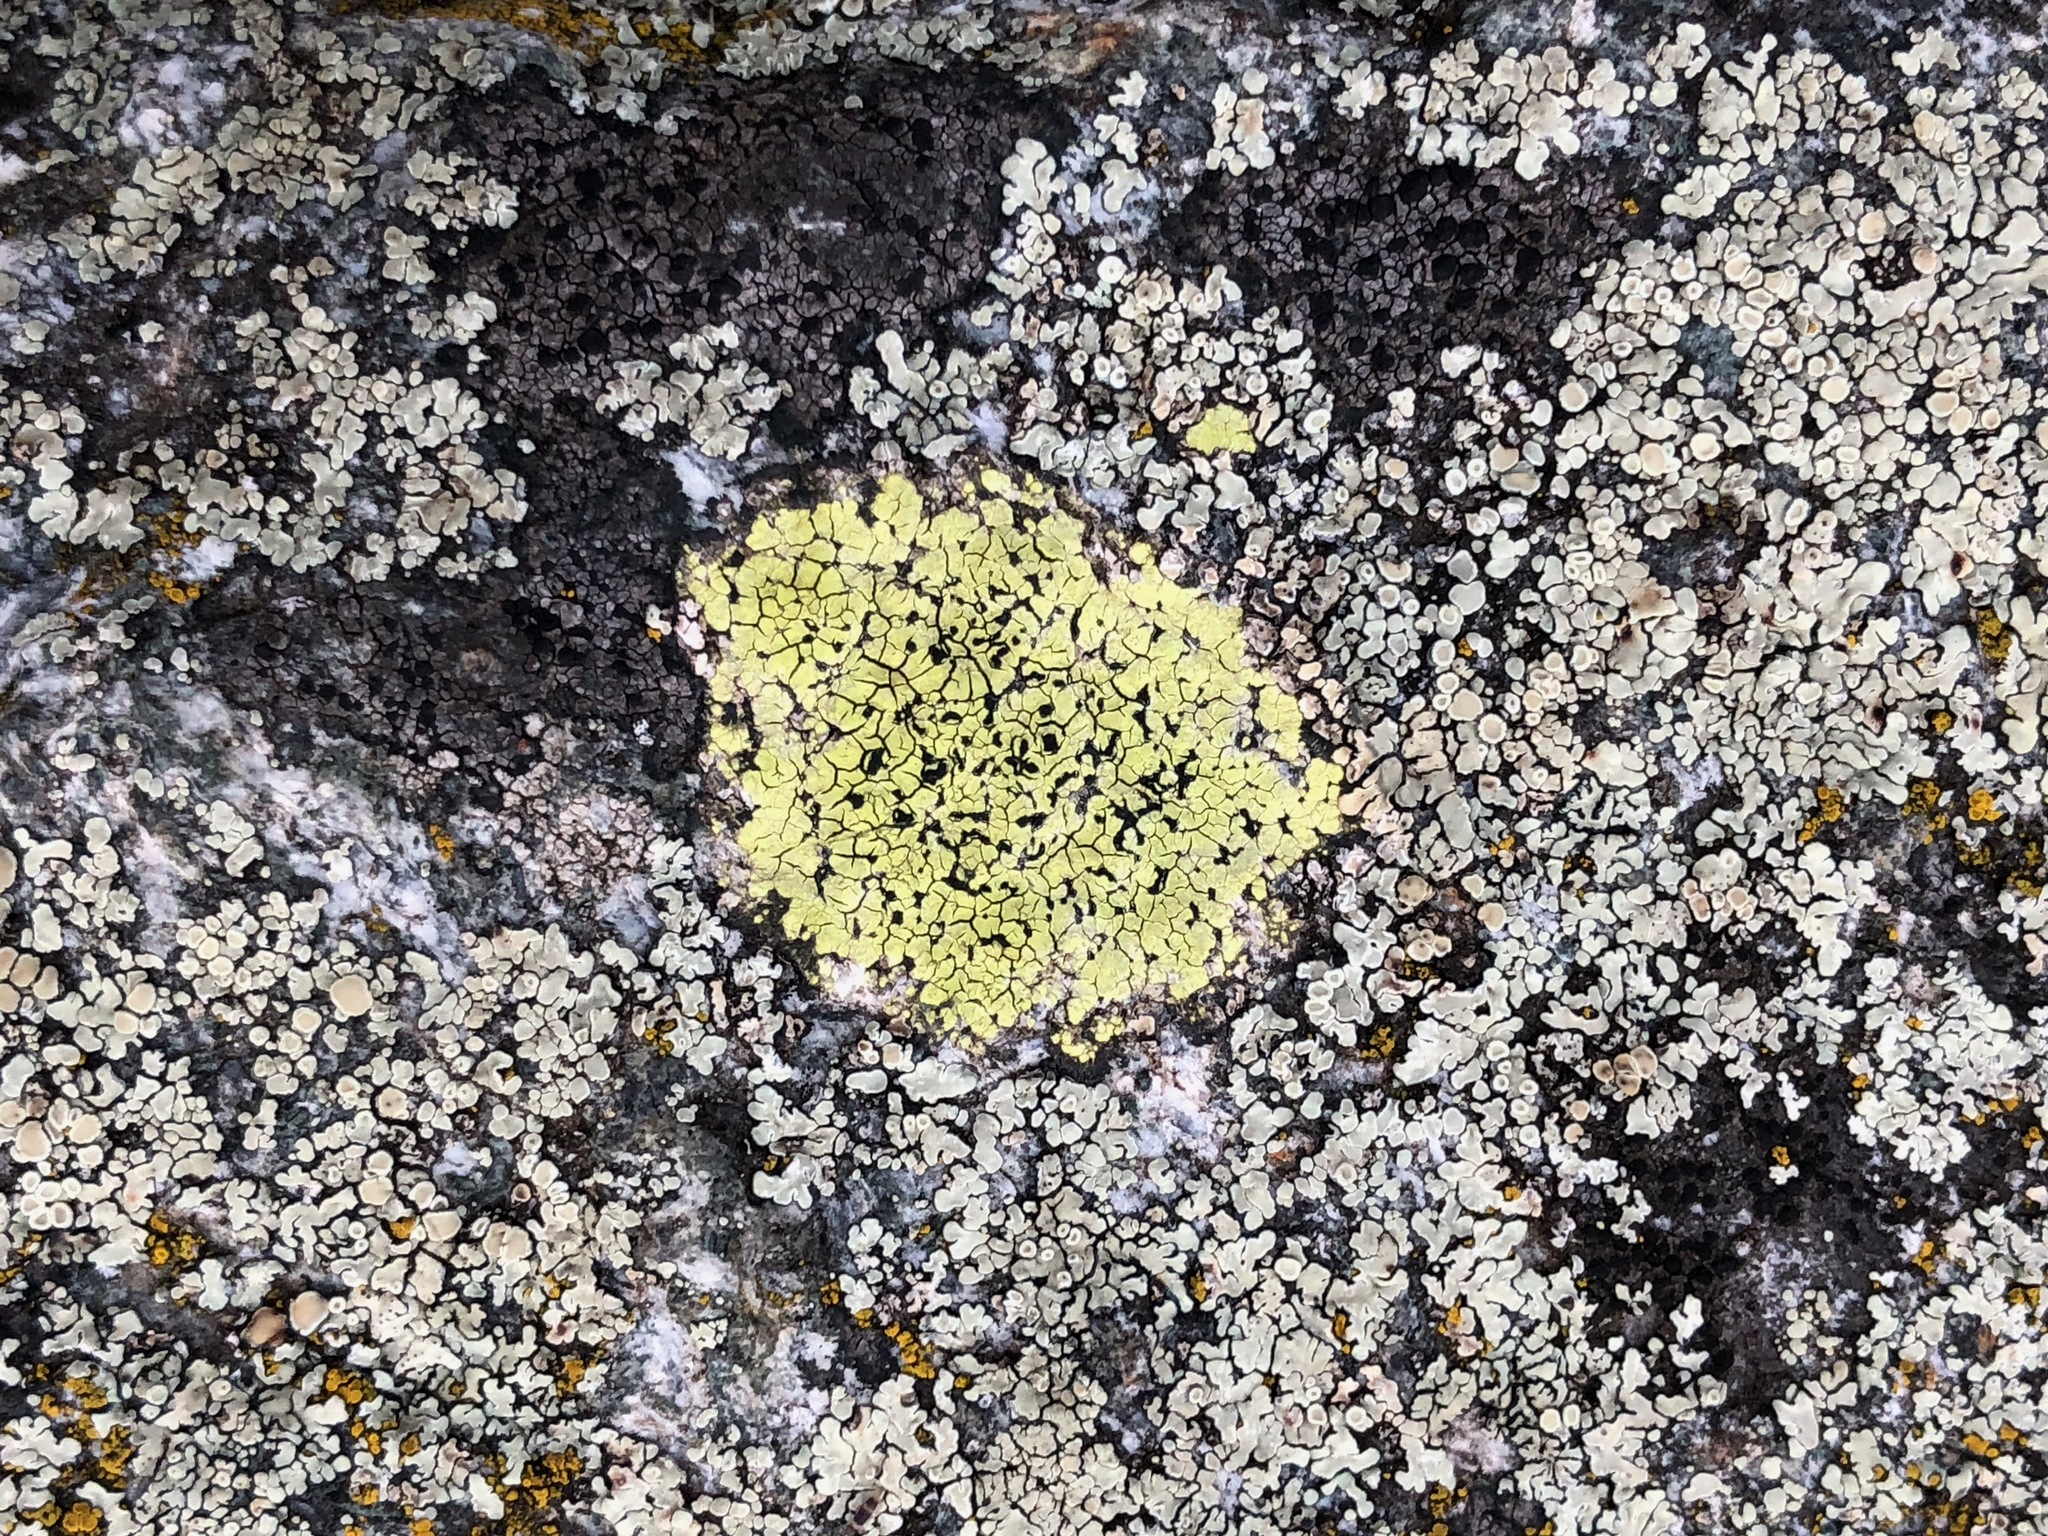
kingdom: Fungi
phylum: Ascomycota
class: Lecanoromycetes
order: Rhizocarpales
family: Rhizocarpaceae
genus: Rhizocarpon
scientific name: Rhizocarpon geographicum
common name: Yellow map lichen
